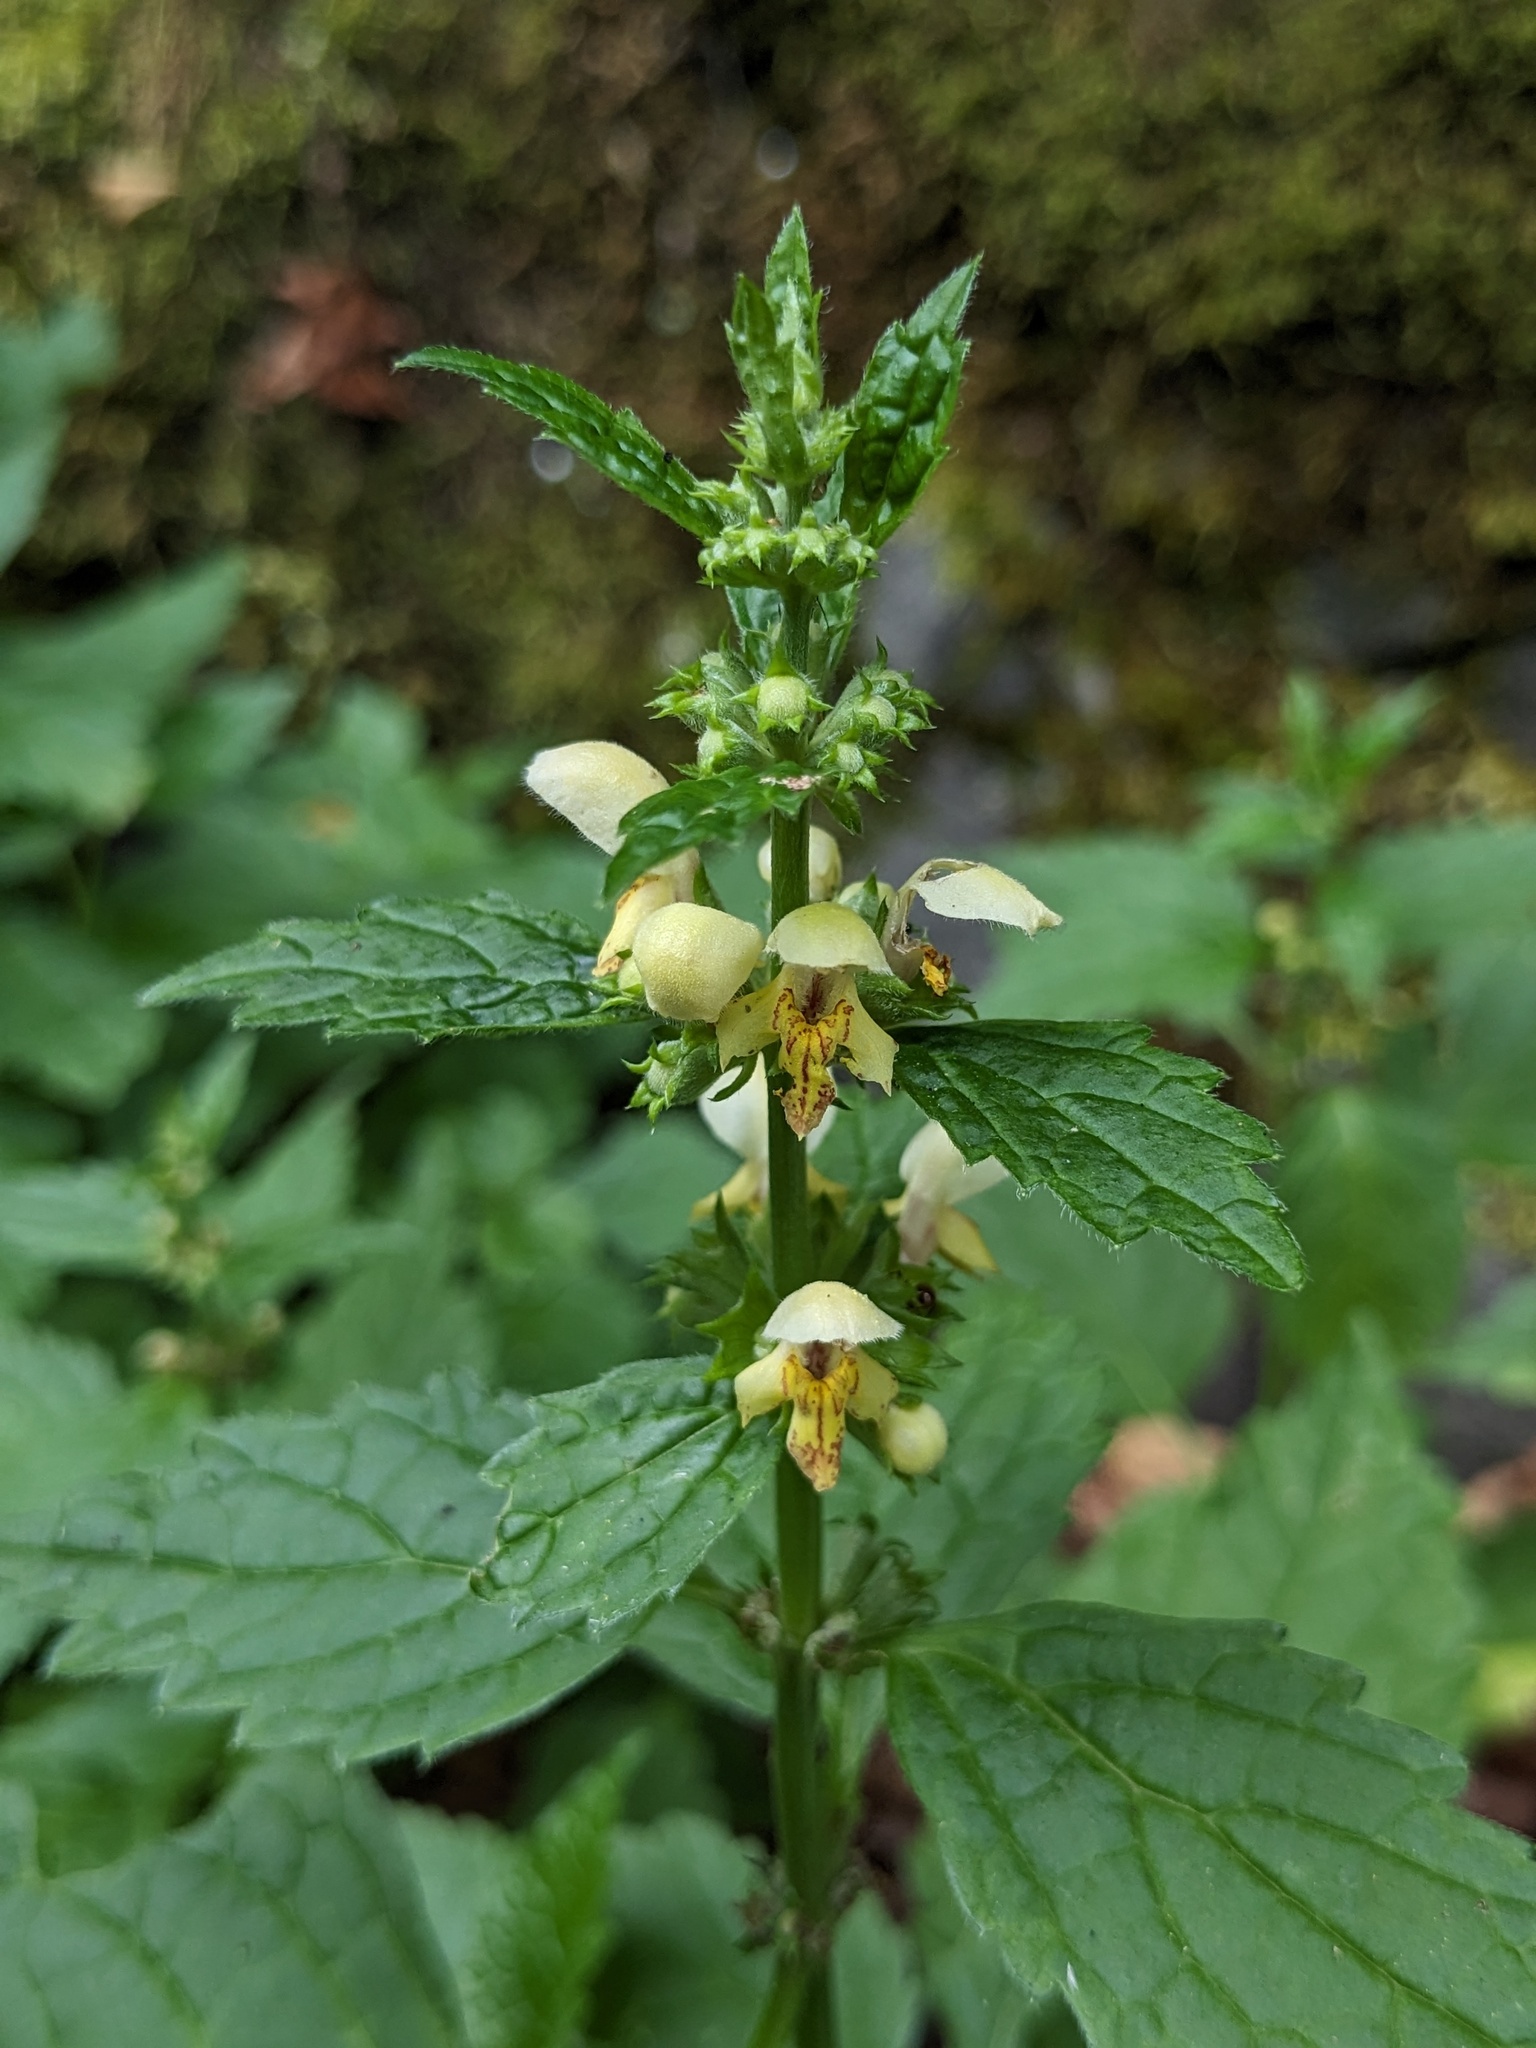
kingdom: Plantae
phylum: Tracheophyta
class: Magnoliopsida
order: Lamiales
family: Lamiaceae
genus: Lamium
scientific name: Lamium galeobdolon
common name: Yellow archangel
